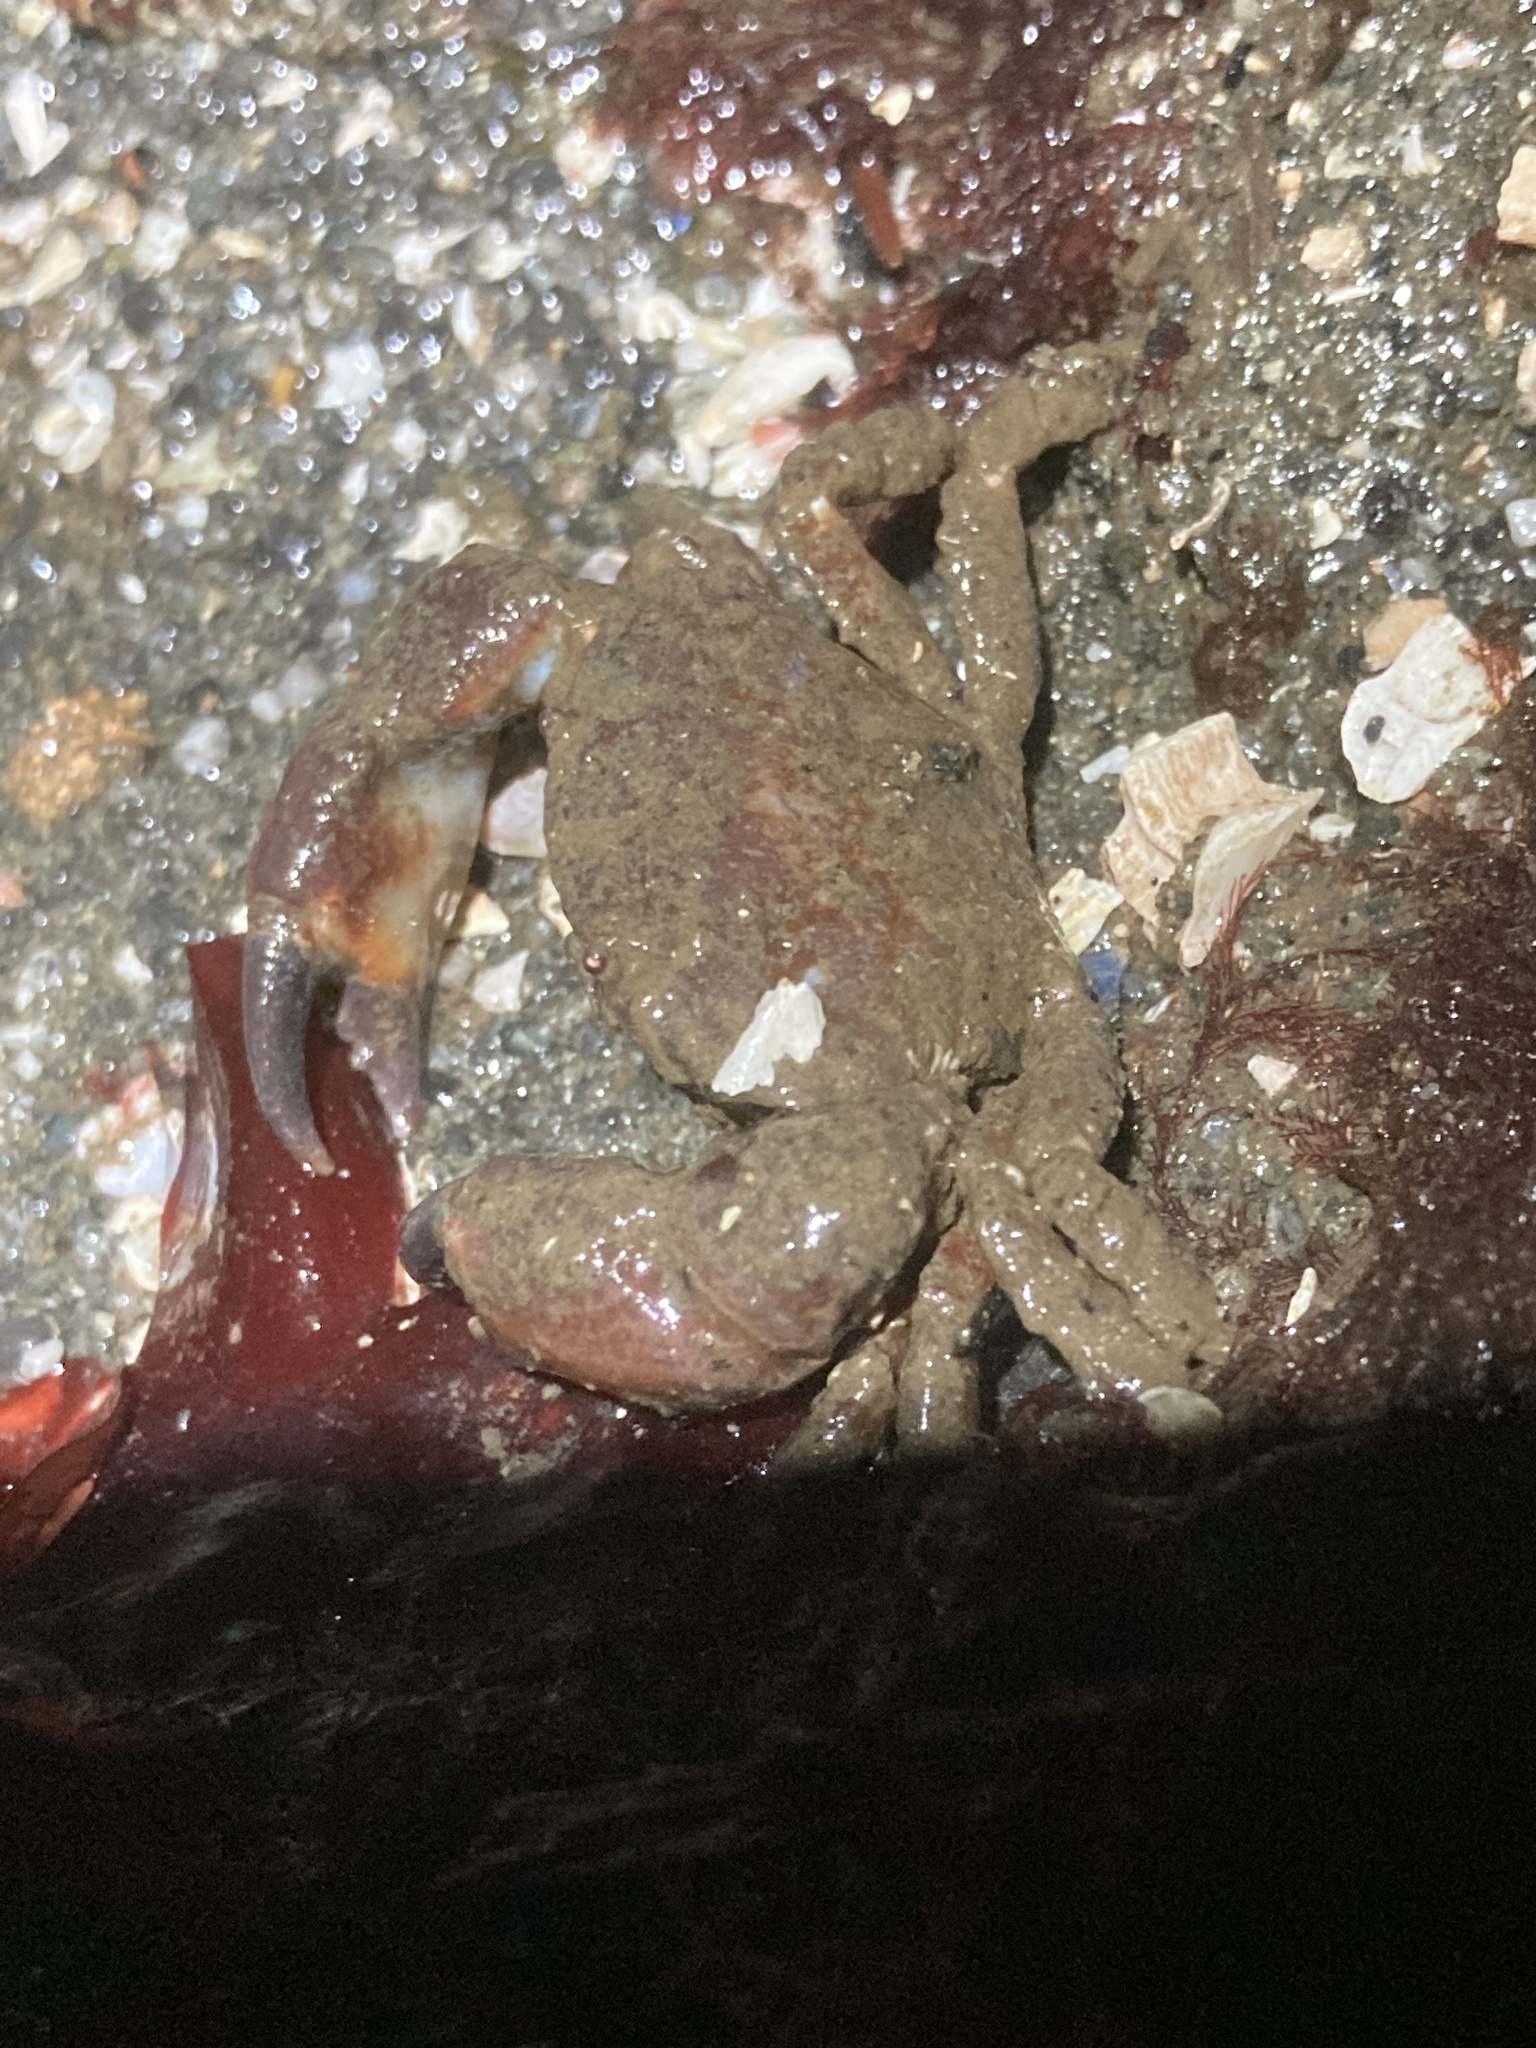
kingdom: Animalia
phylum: Arthropoda
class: Malacostraca
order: Decapoda
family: Panopeidae
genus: Lophopanopeus
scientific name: Lophopanopeus bellus
